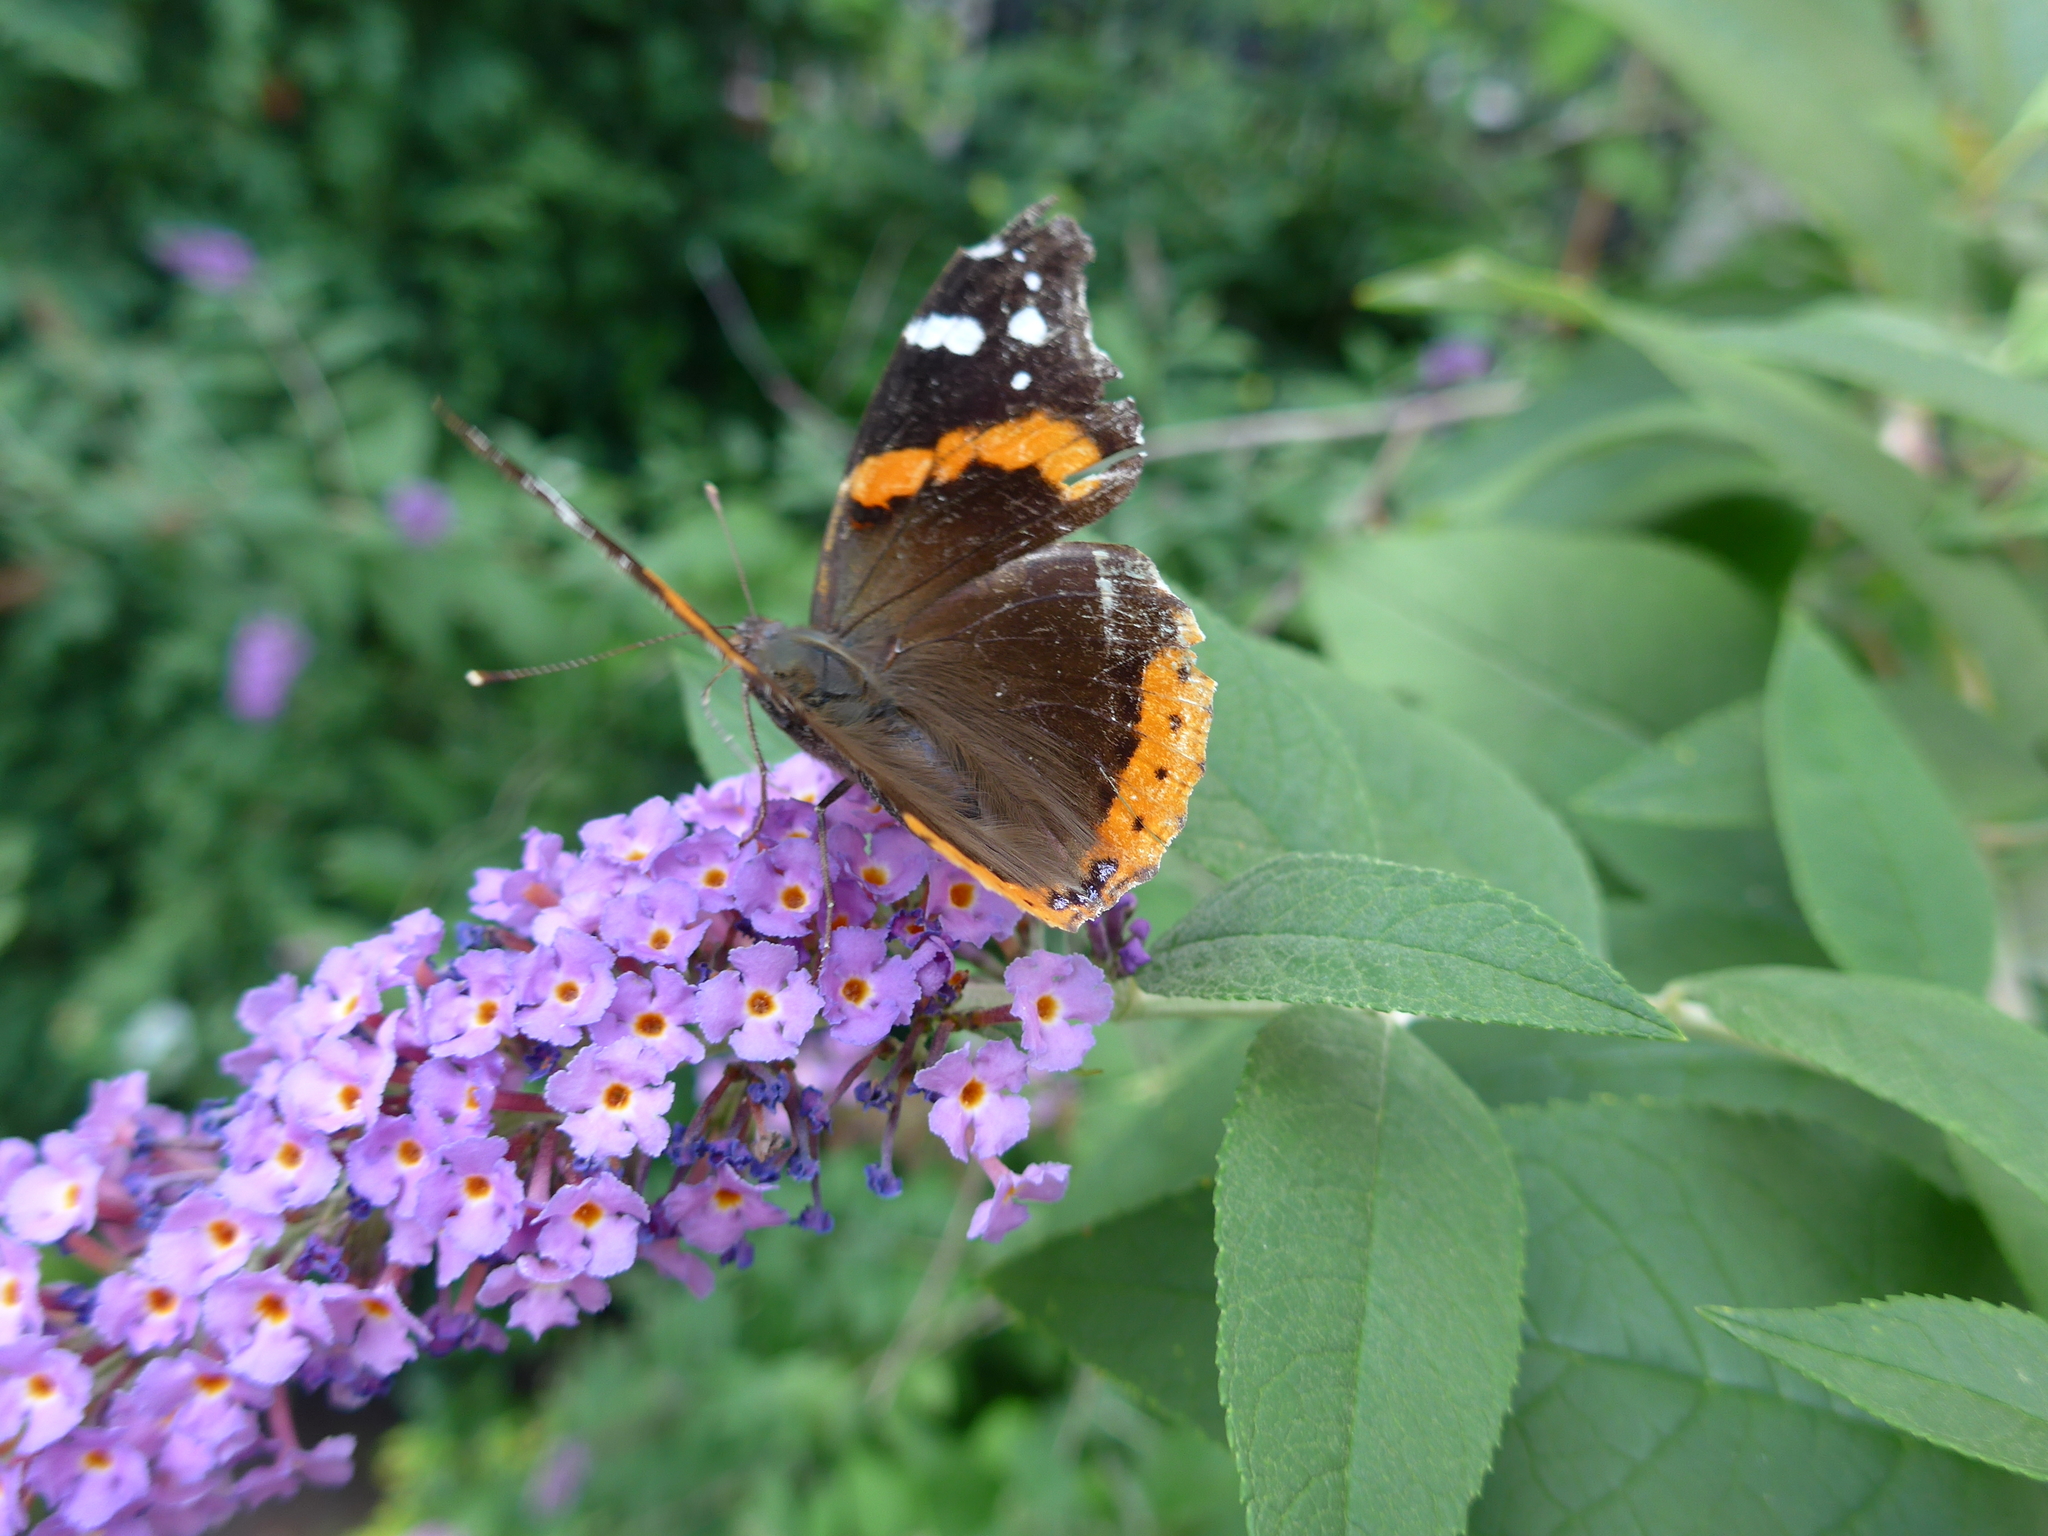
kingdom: Animalia
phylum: Arthropoda
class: Insecta
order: Lepidoptera
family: Nymphalidae
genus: Vanessa
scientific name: Vanessa atalanta
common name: Red admiral
